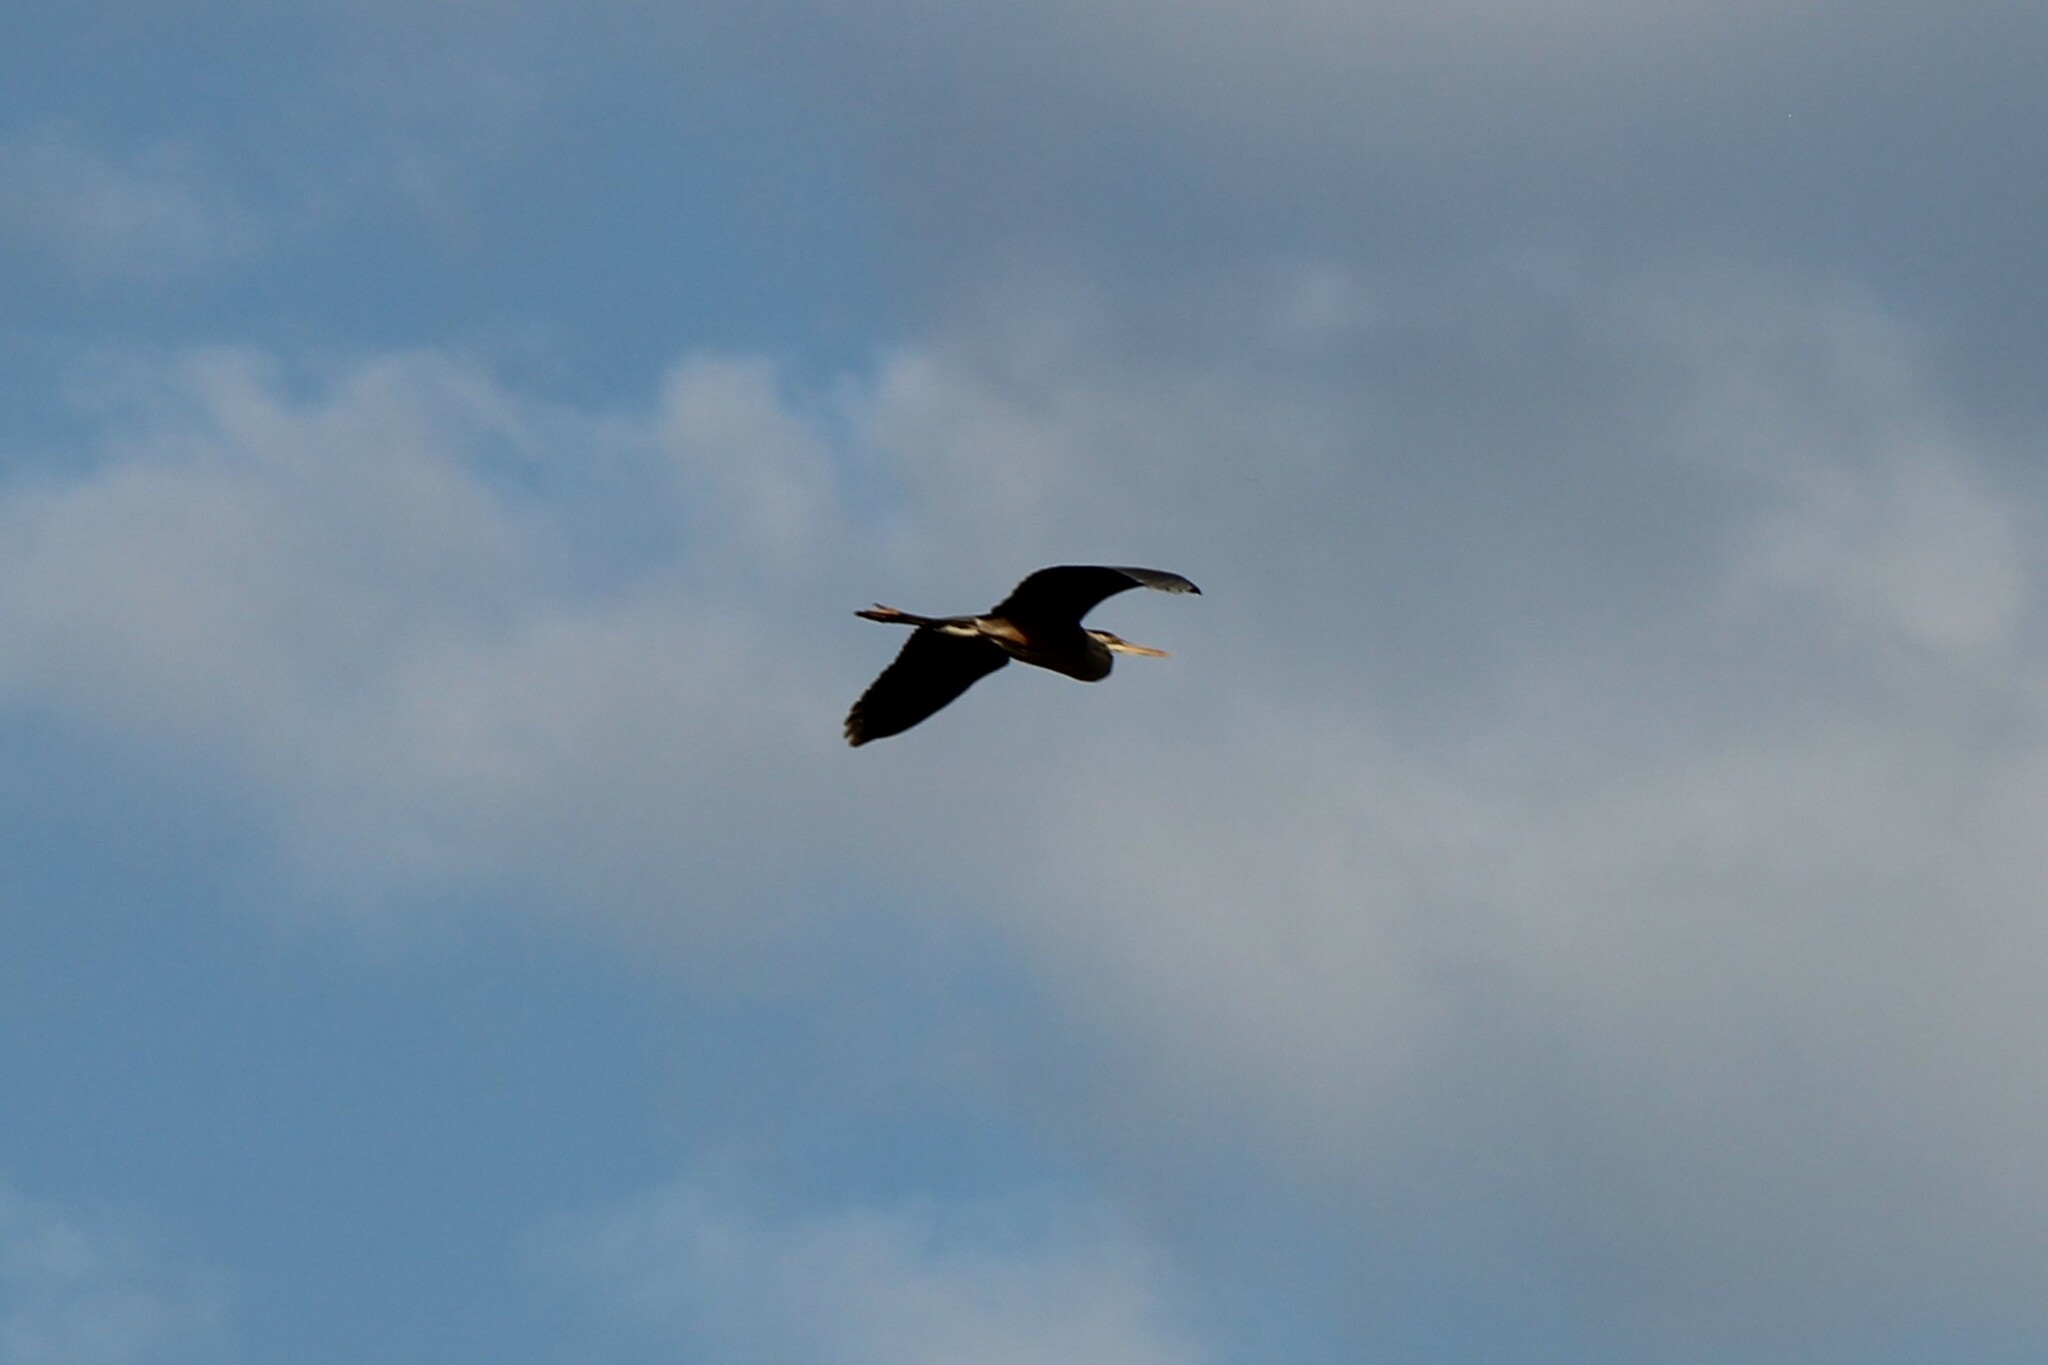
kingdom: Animalia
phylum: Chordata
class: Aves
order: Pelecaniformes
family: Ardeidae
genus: Ardea
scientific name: Ardea herodias
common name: Great blue heron
